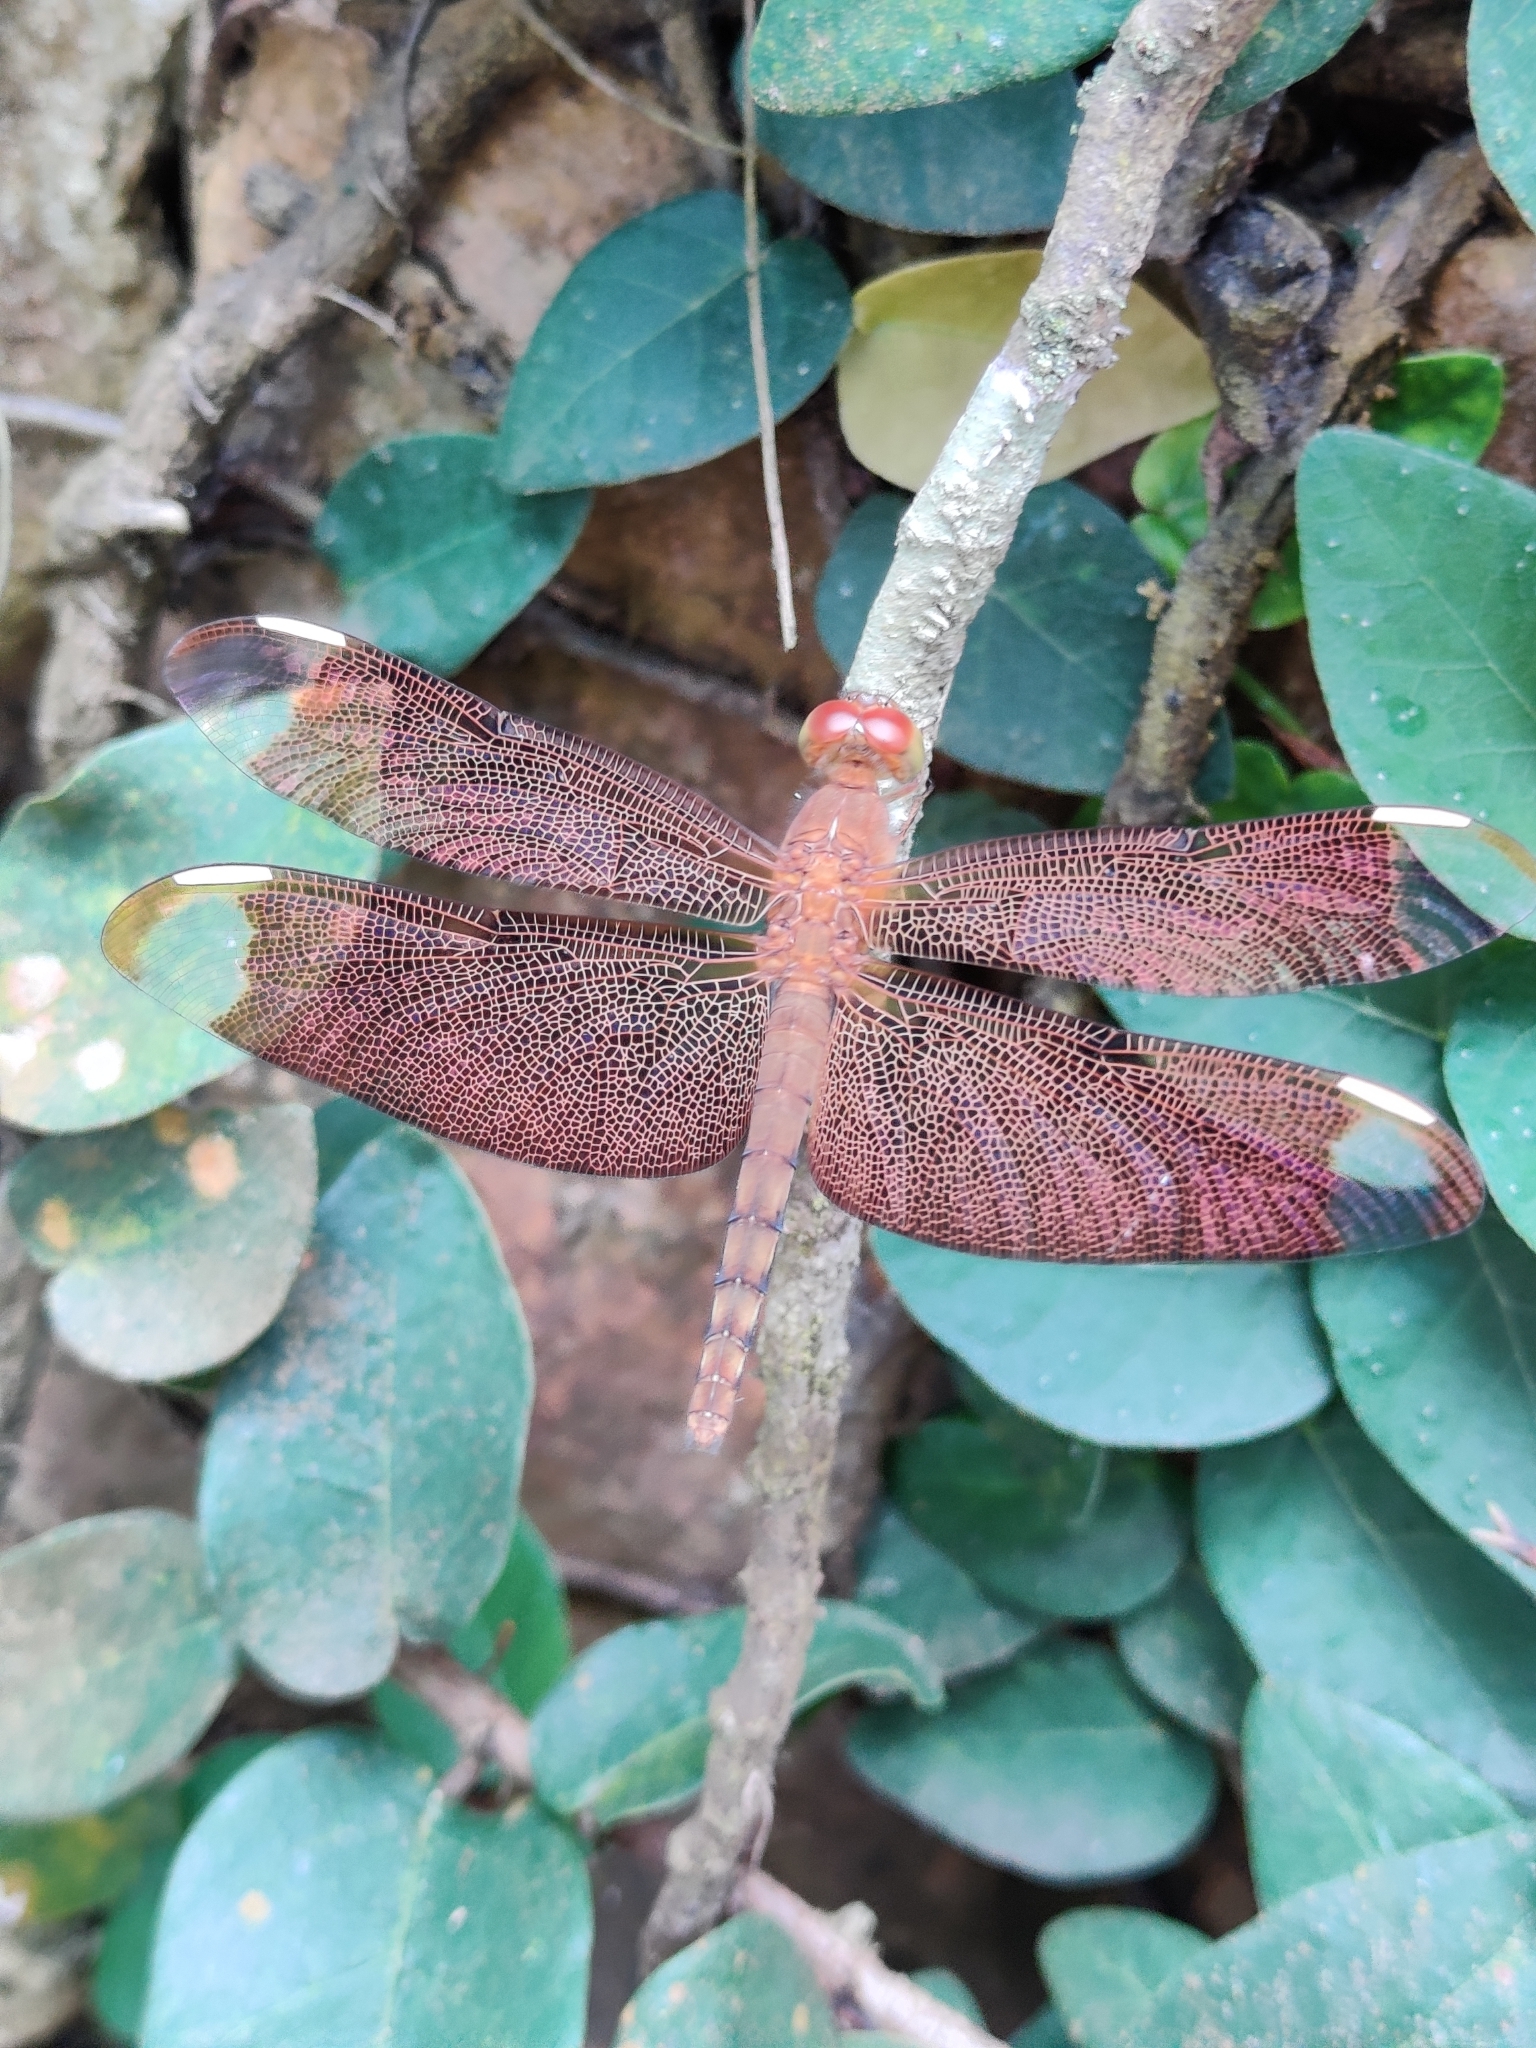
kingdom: Animalia
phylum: Arthropoda
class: Insecta
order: Odonata
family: Libellulidae
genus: Neurothemis
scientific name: Neurothemis fulvia
